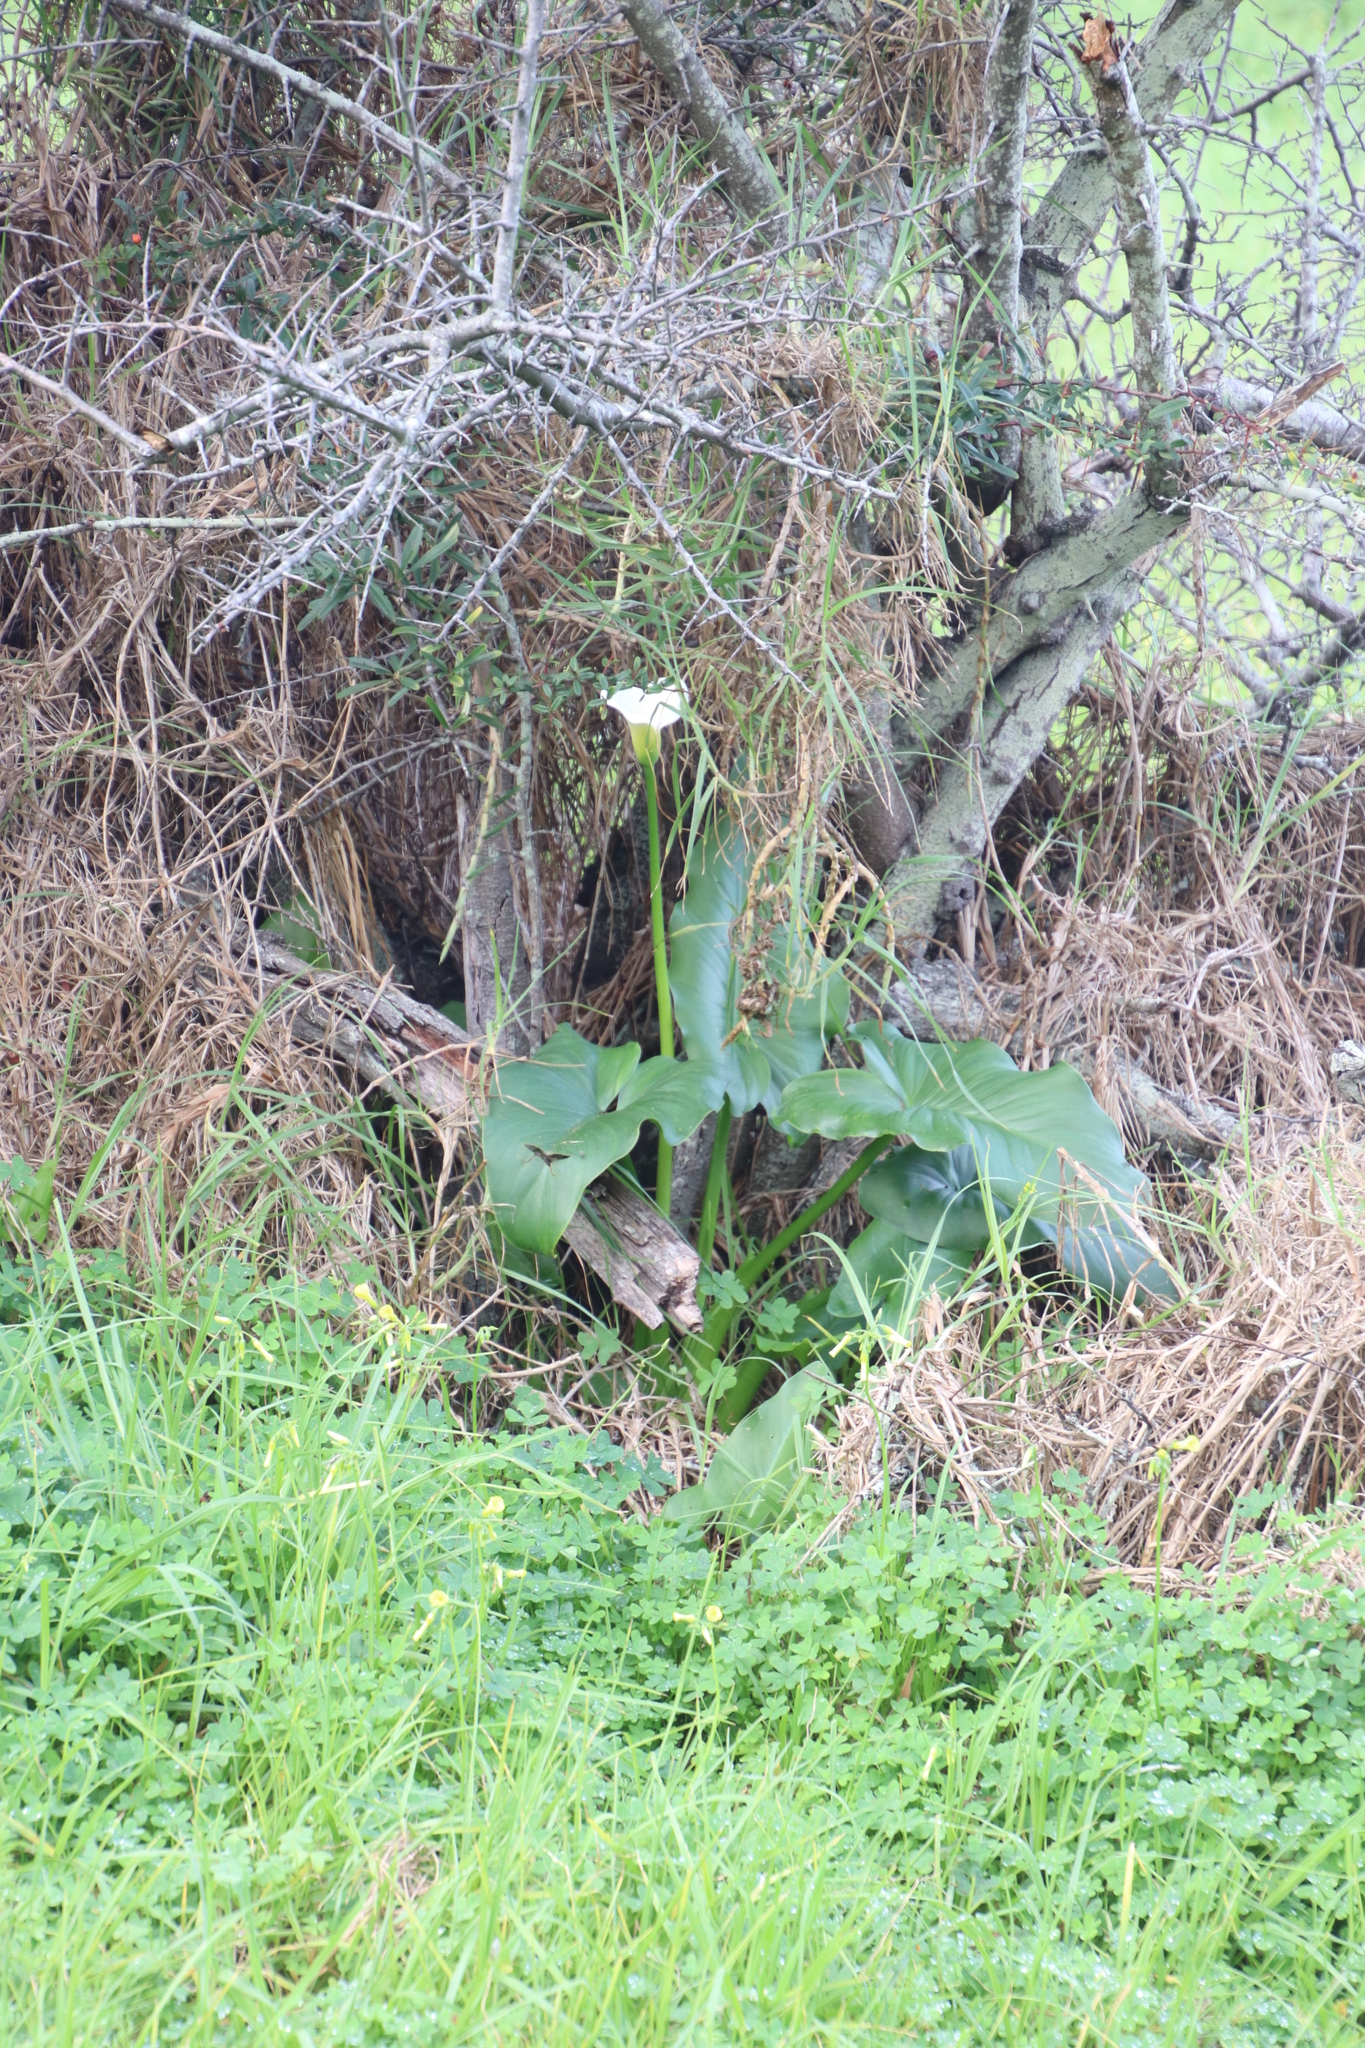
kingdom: Plantae
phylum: Tracheophyta
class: Liliopsida
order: Alismatales
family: Araceae
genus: Zantedeschia
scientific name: Zantedeschia aethiopica
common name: Altar-lily
